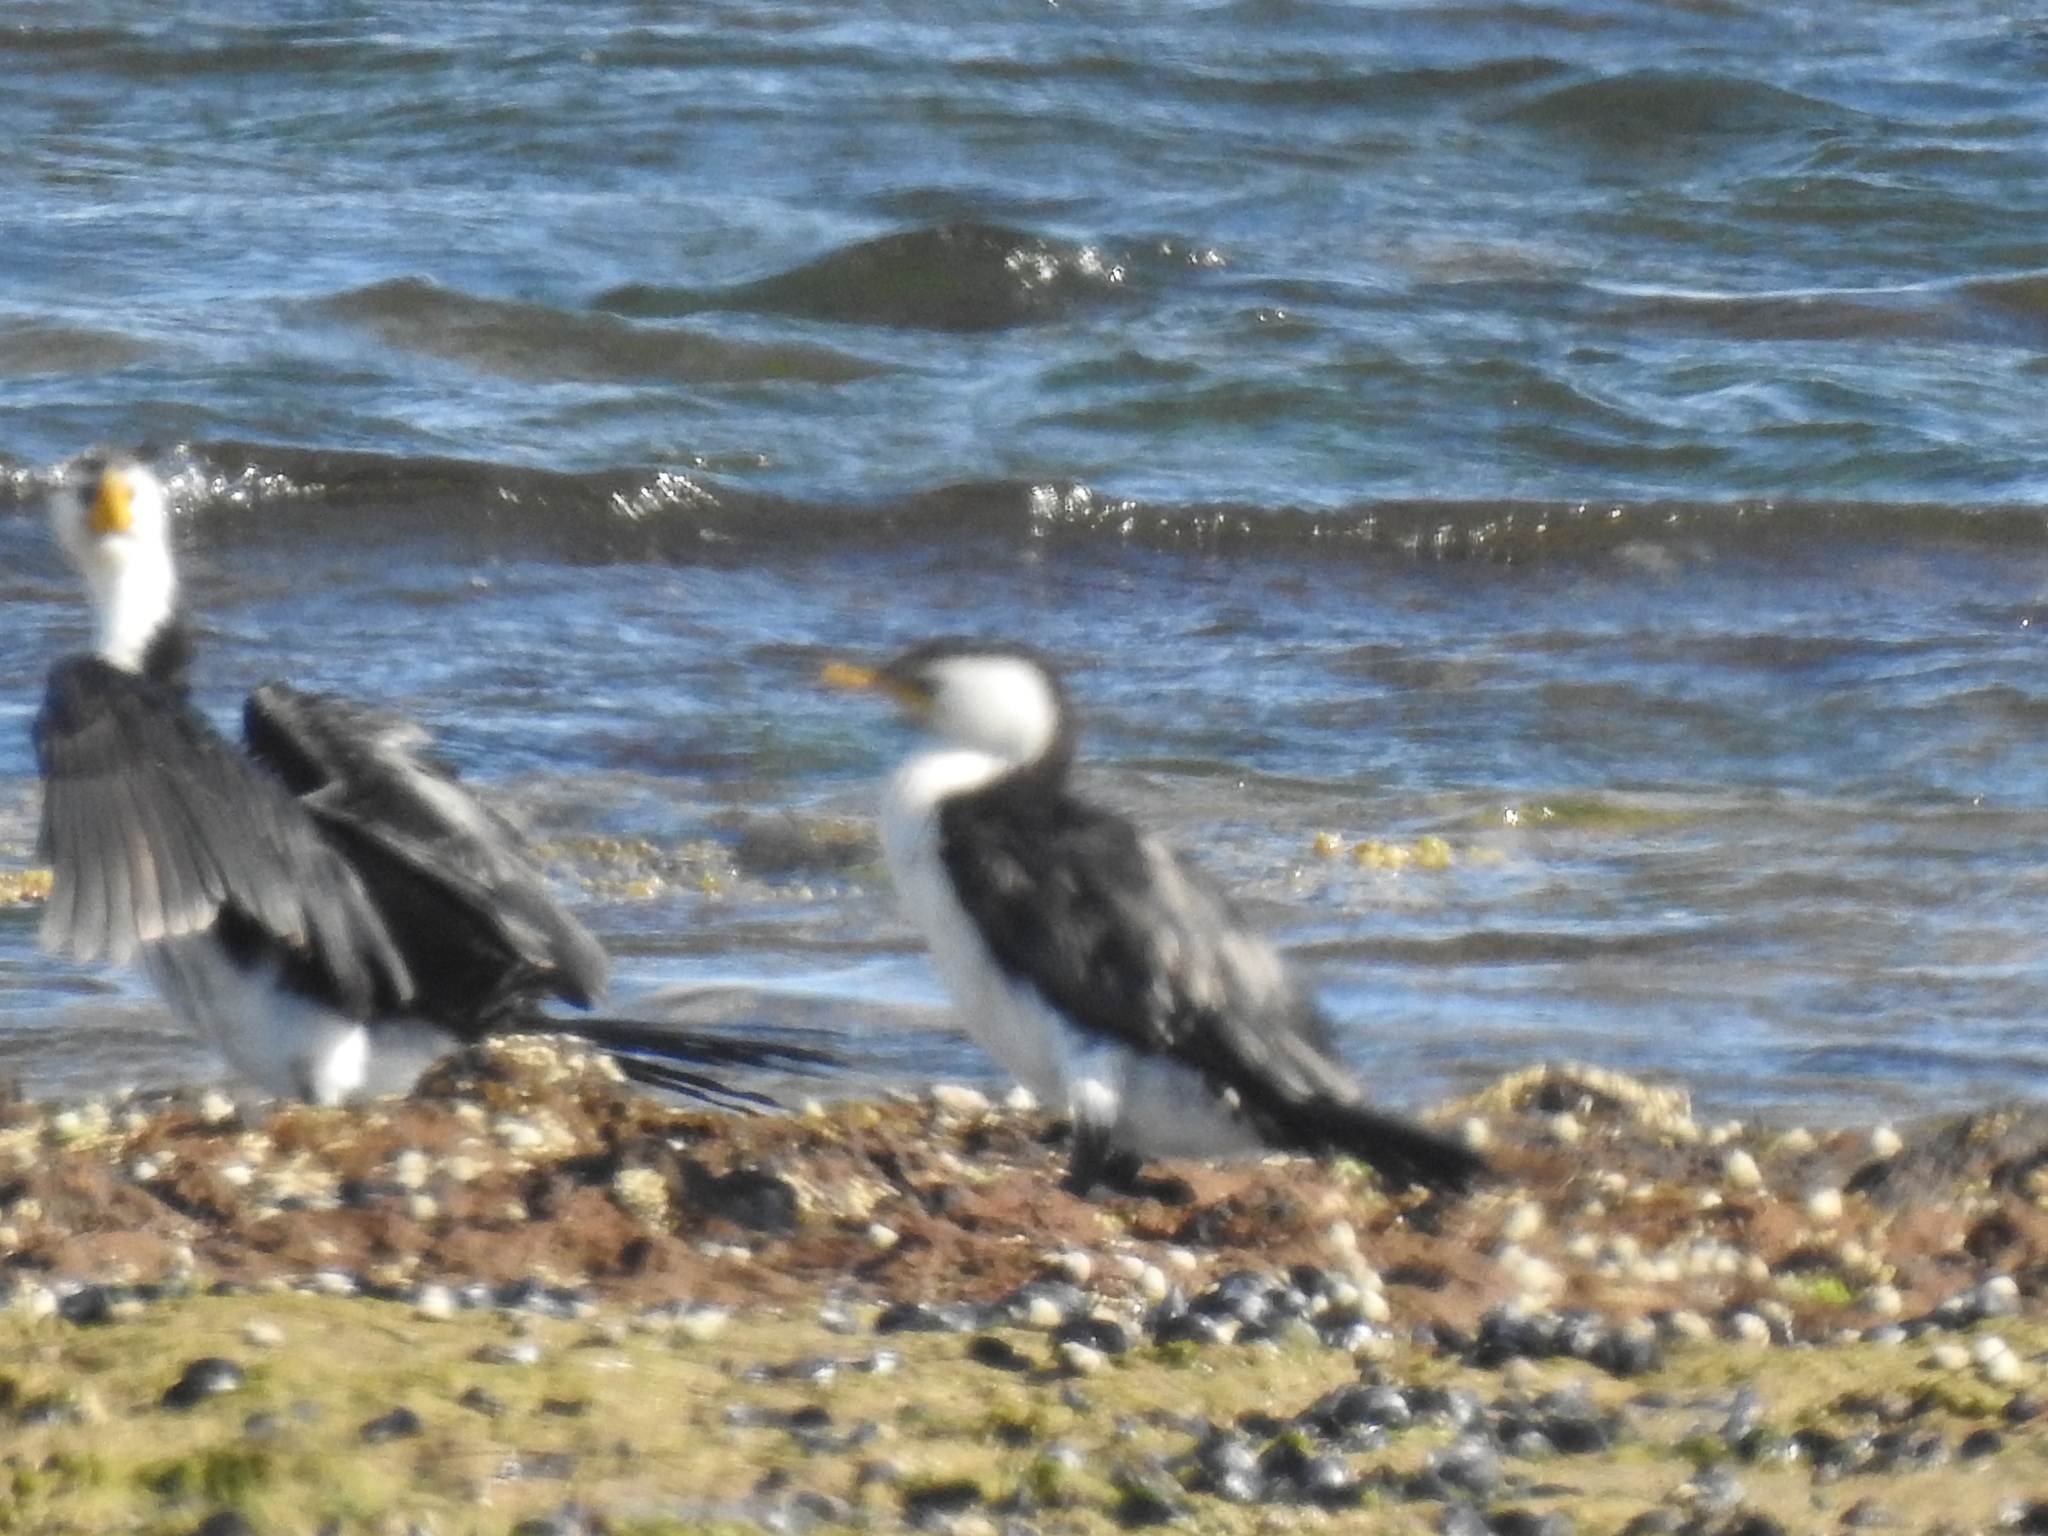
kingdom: Animalia
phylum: Chordata
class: Aves
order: Suliformes
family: Phalacrocoracidae
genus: Microcarbo
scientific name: Microcarbo melanoleucos
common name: Little pied cormorant
